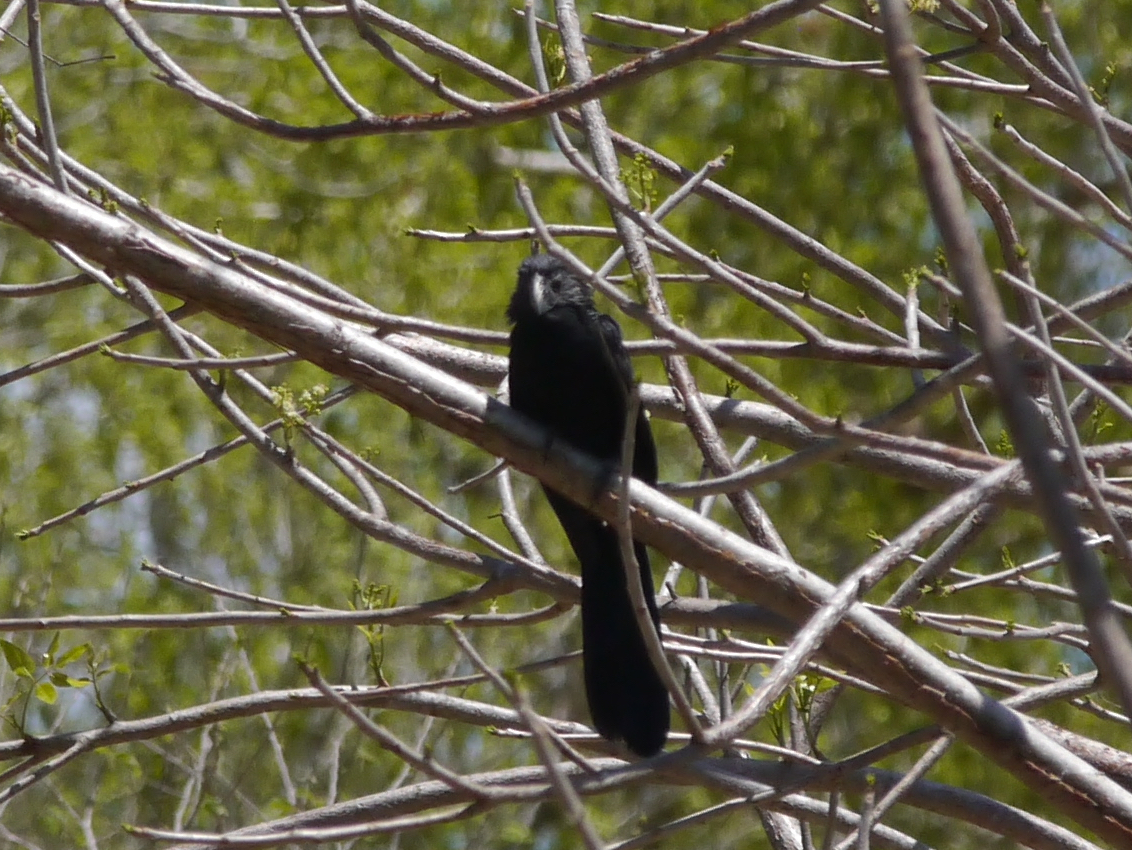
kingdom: Animalia
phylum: Chordata
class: Aves
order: Cuculiformes
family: Cuculidae
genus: Crotophaga
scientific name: Crotophaga sulcirostris
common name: Groove-billed ani
